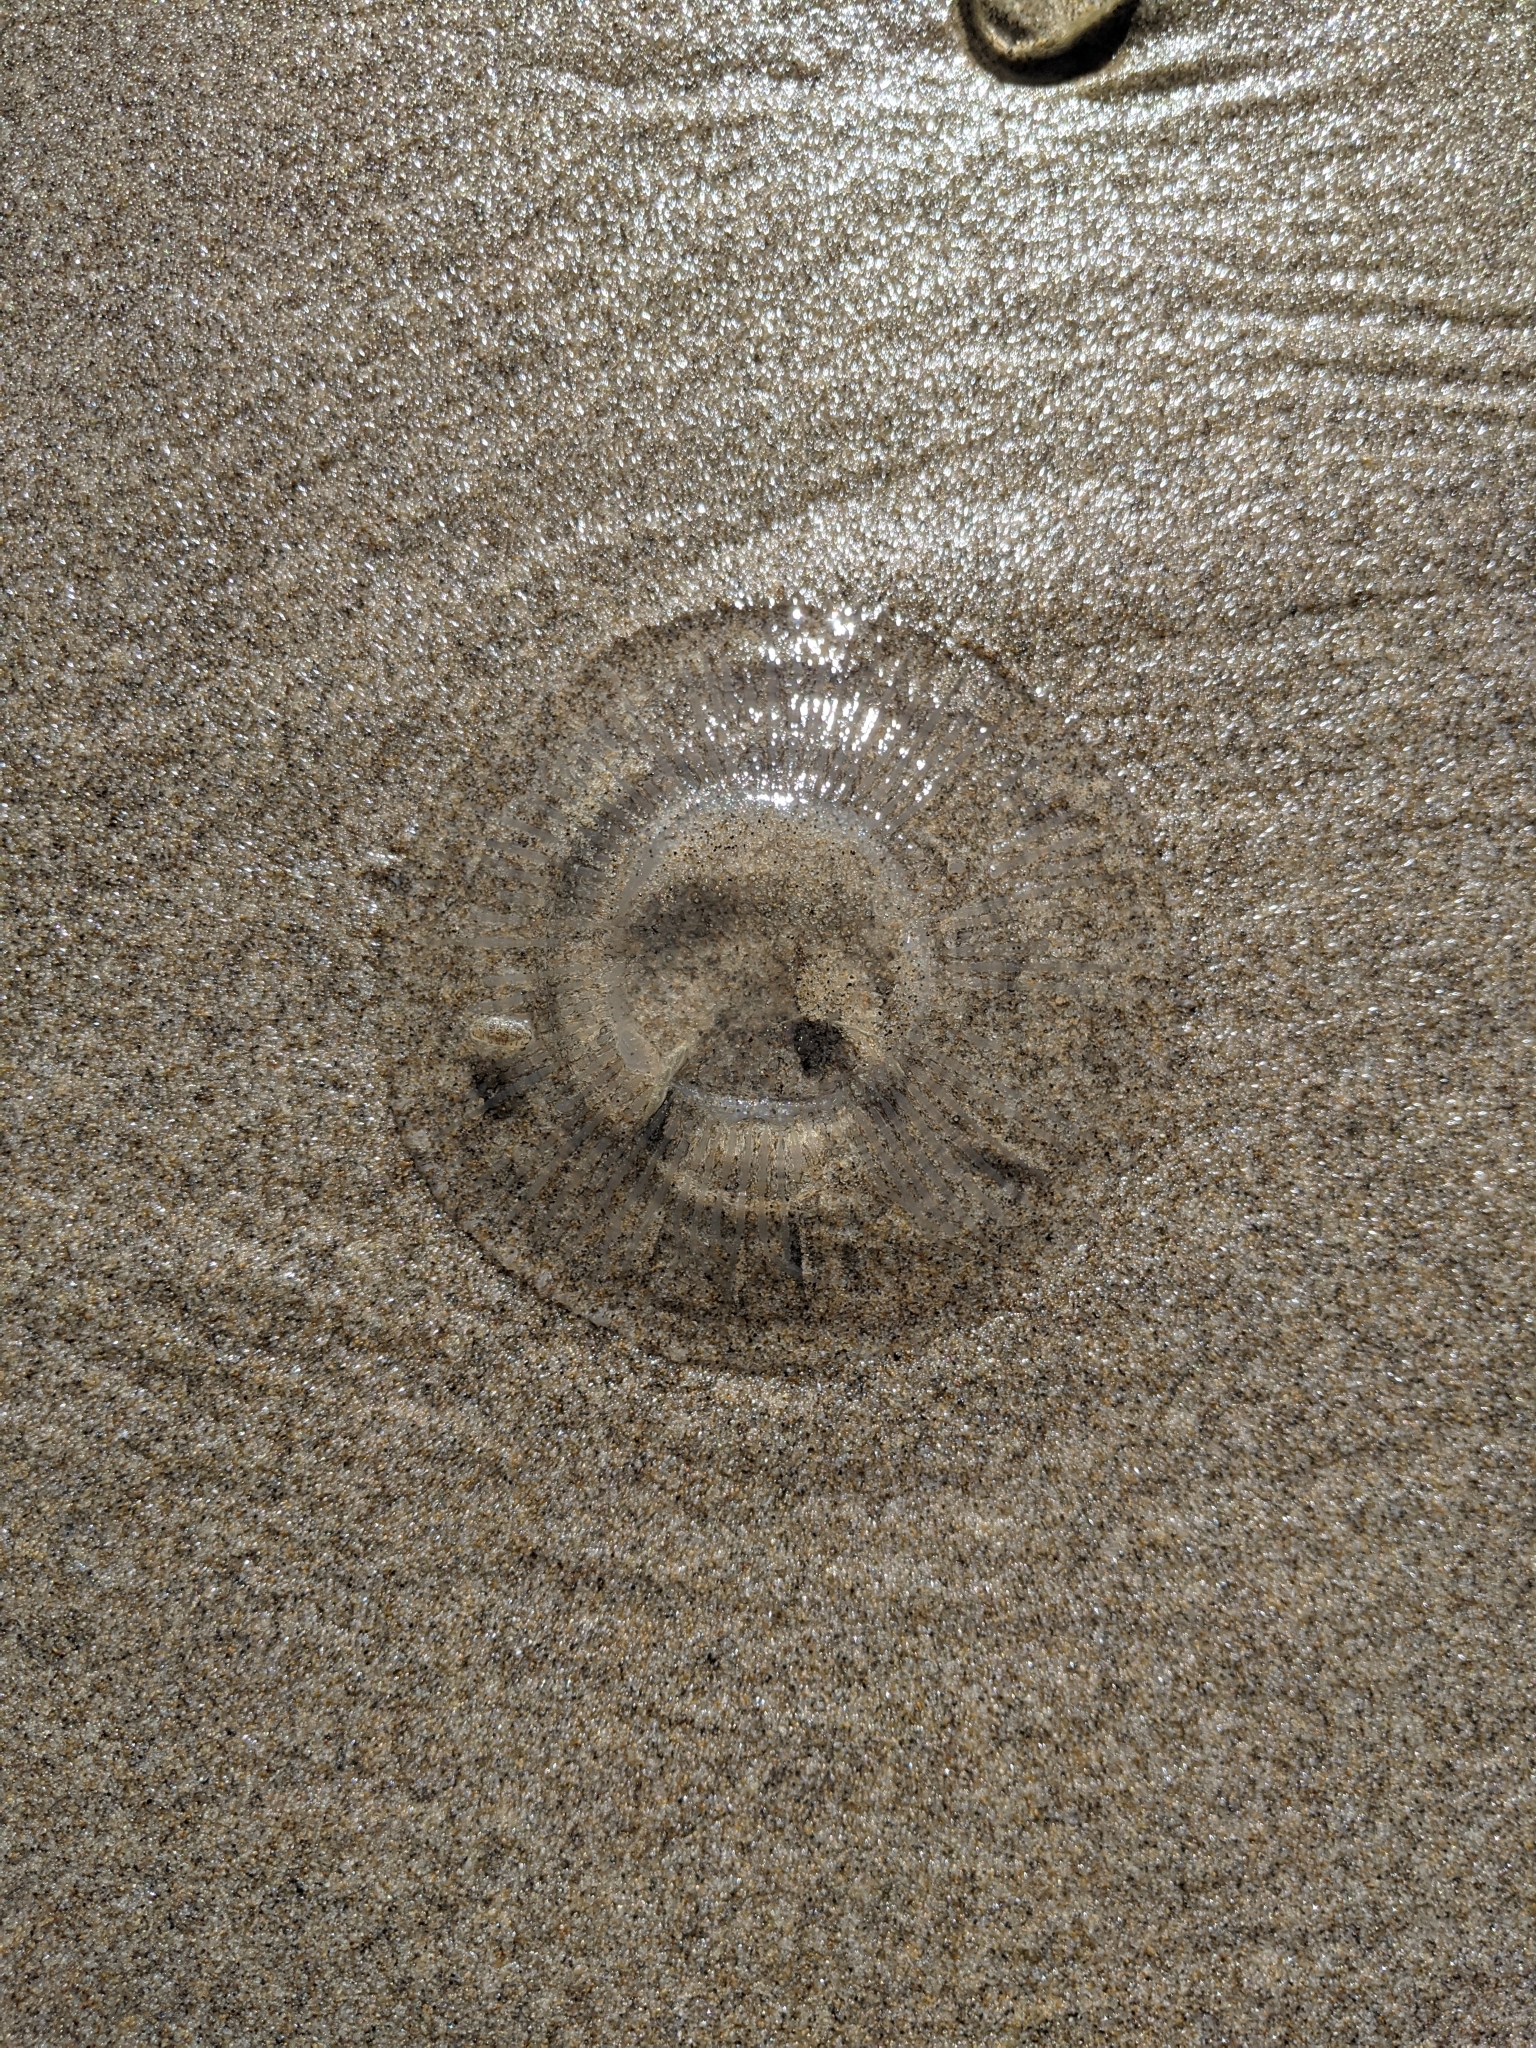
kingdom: Animalia
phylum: Cnidaria
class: Hydrozoa
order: Leptothecata
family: Aequoreidae
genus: Aequorea
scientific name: Aequorea victoria
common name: Water jellyfish
